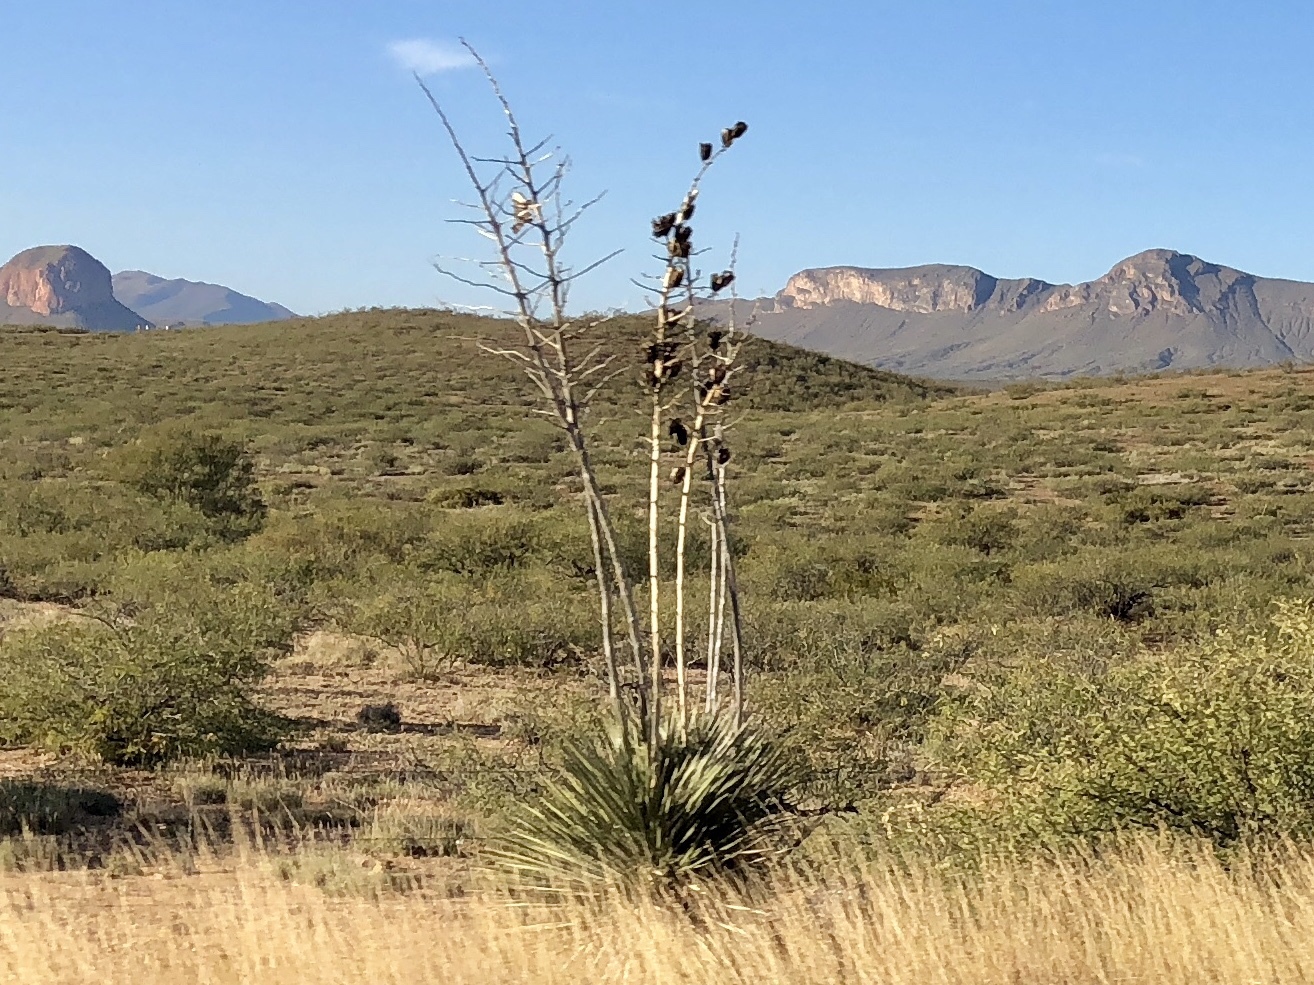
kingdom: Plantae
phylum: Tracheophyta
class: Liliopsida
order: Asparagales
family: Asparagaceae
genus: Yucca
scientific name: Yucca elata
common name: Palmella
